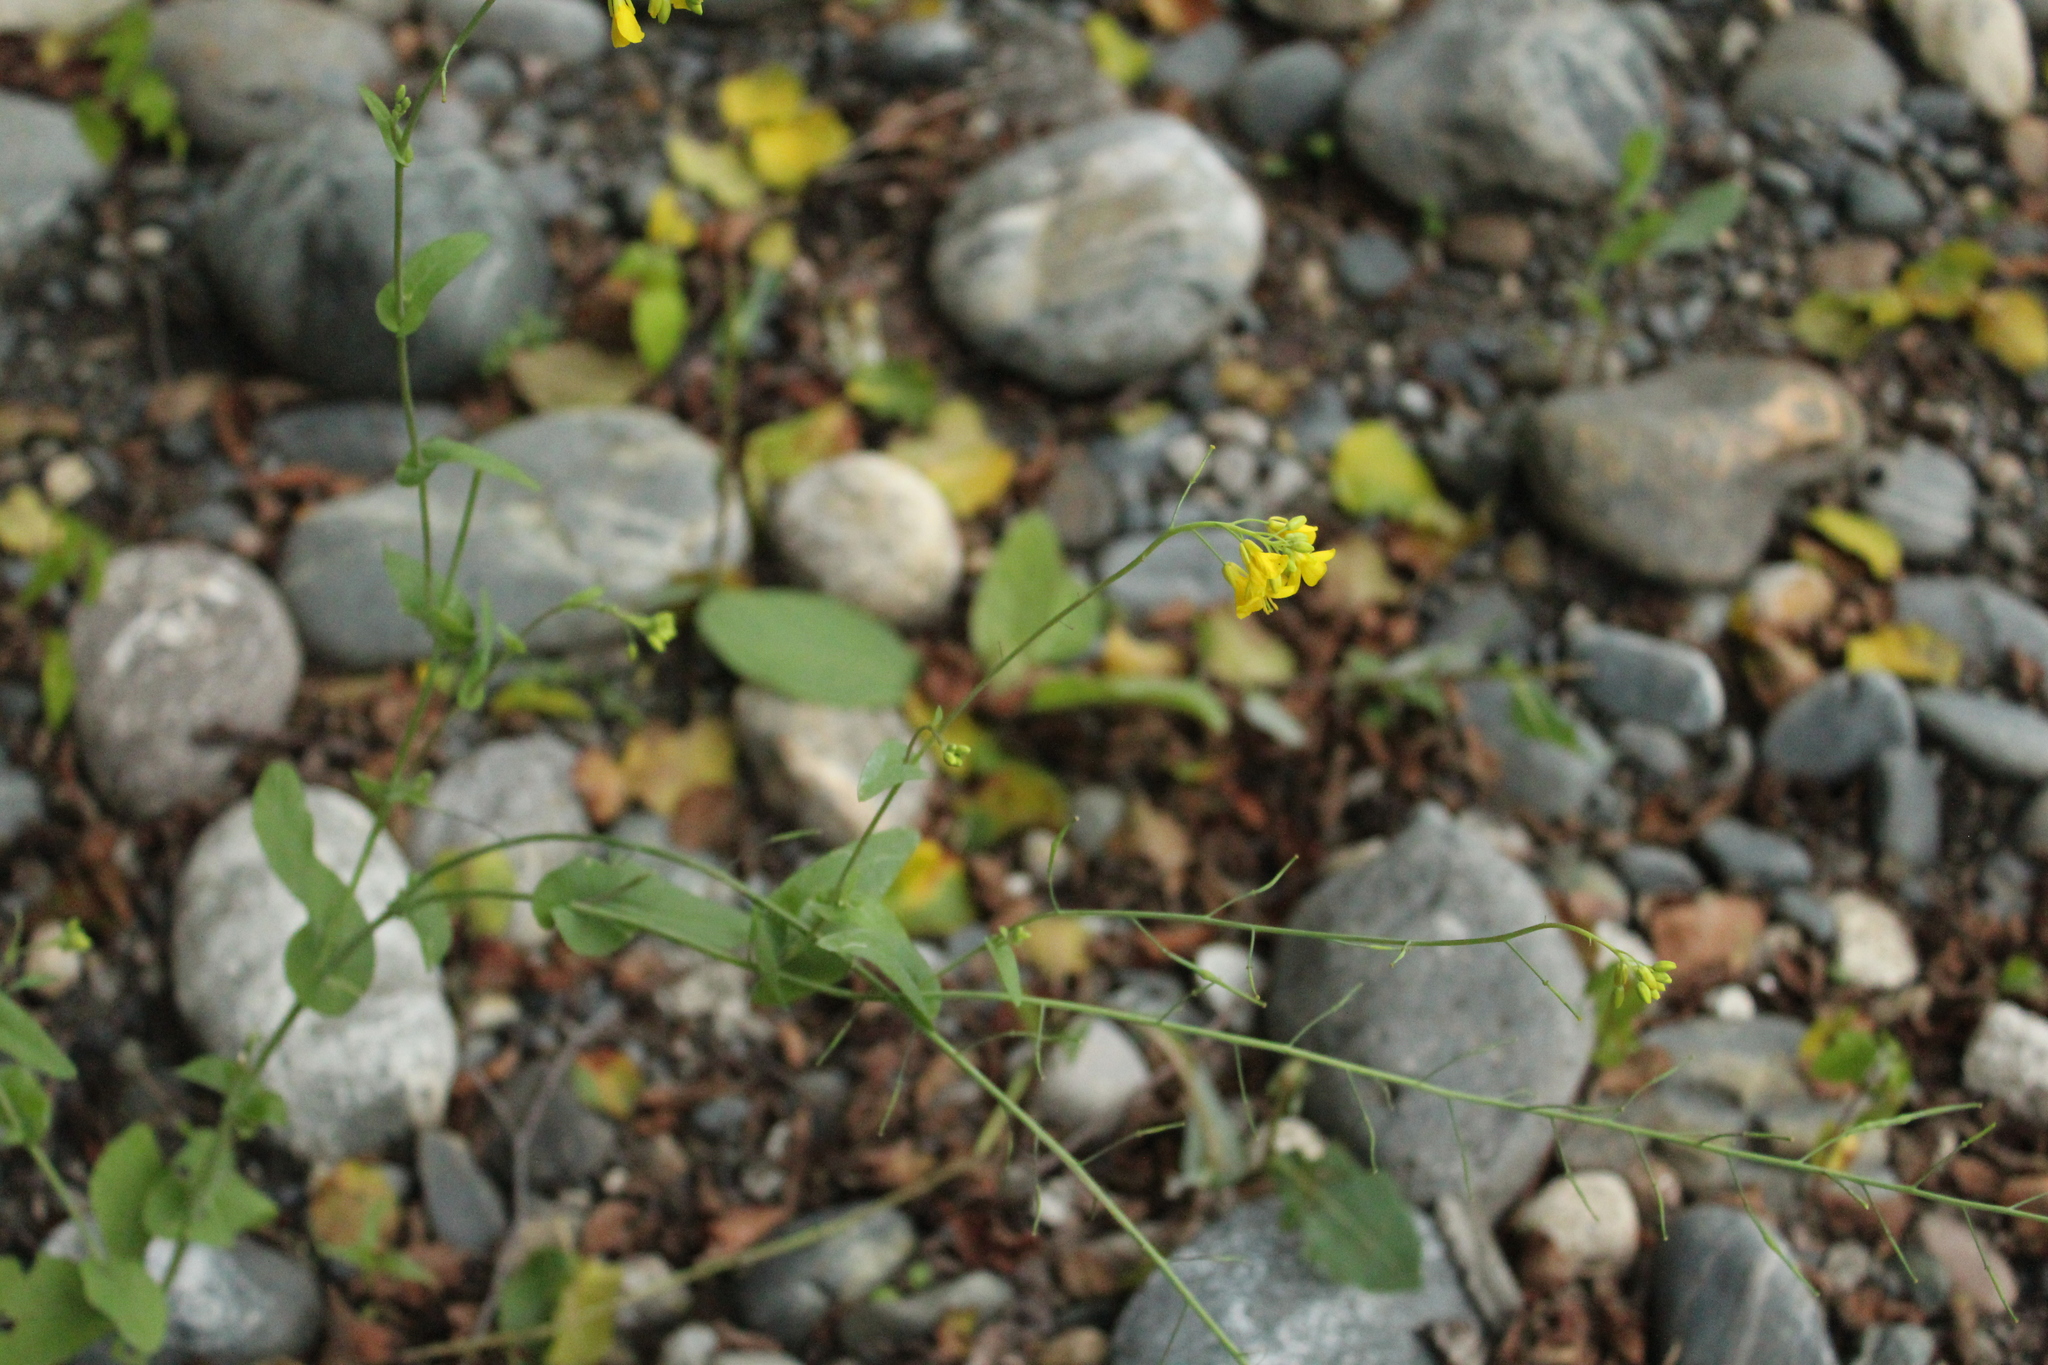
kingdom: Plantae
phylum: Tracheophyta
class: Magnoliopsida
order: Brassicales
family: Brassicaceae
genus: Brassica
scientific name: Brassica rapa
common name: Field mustard
